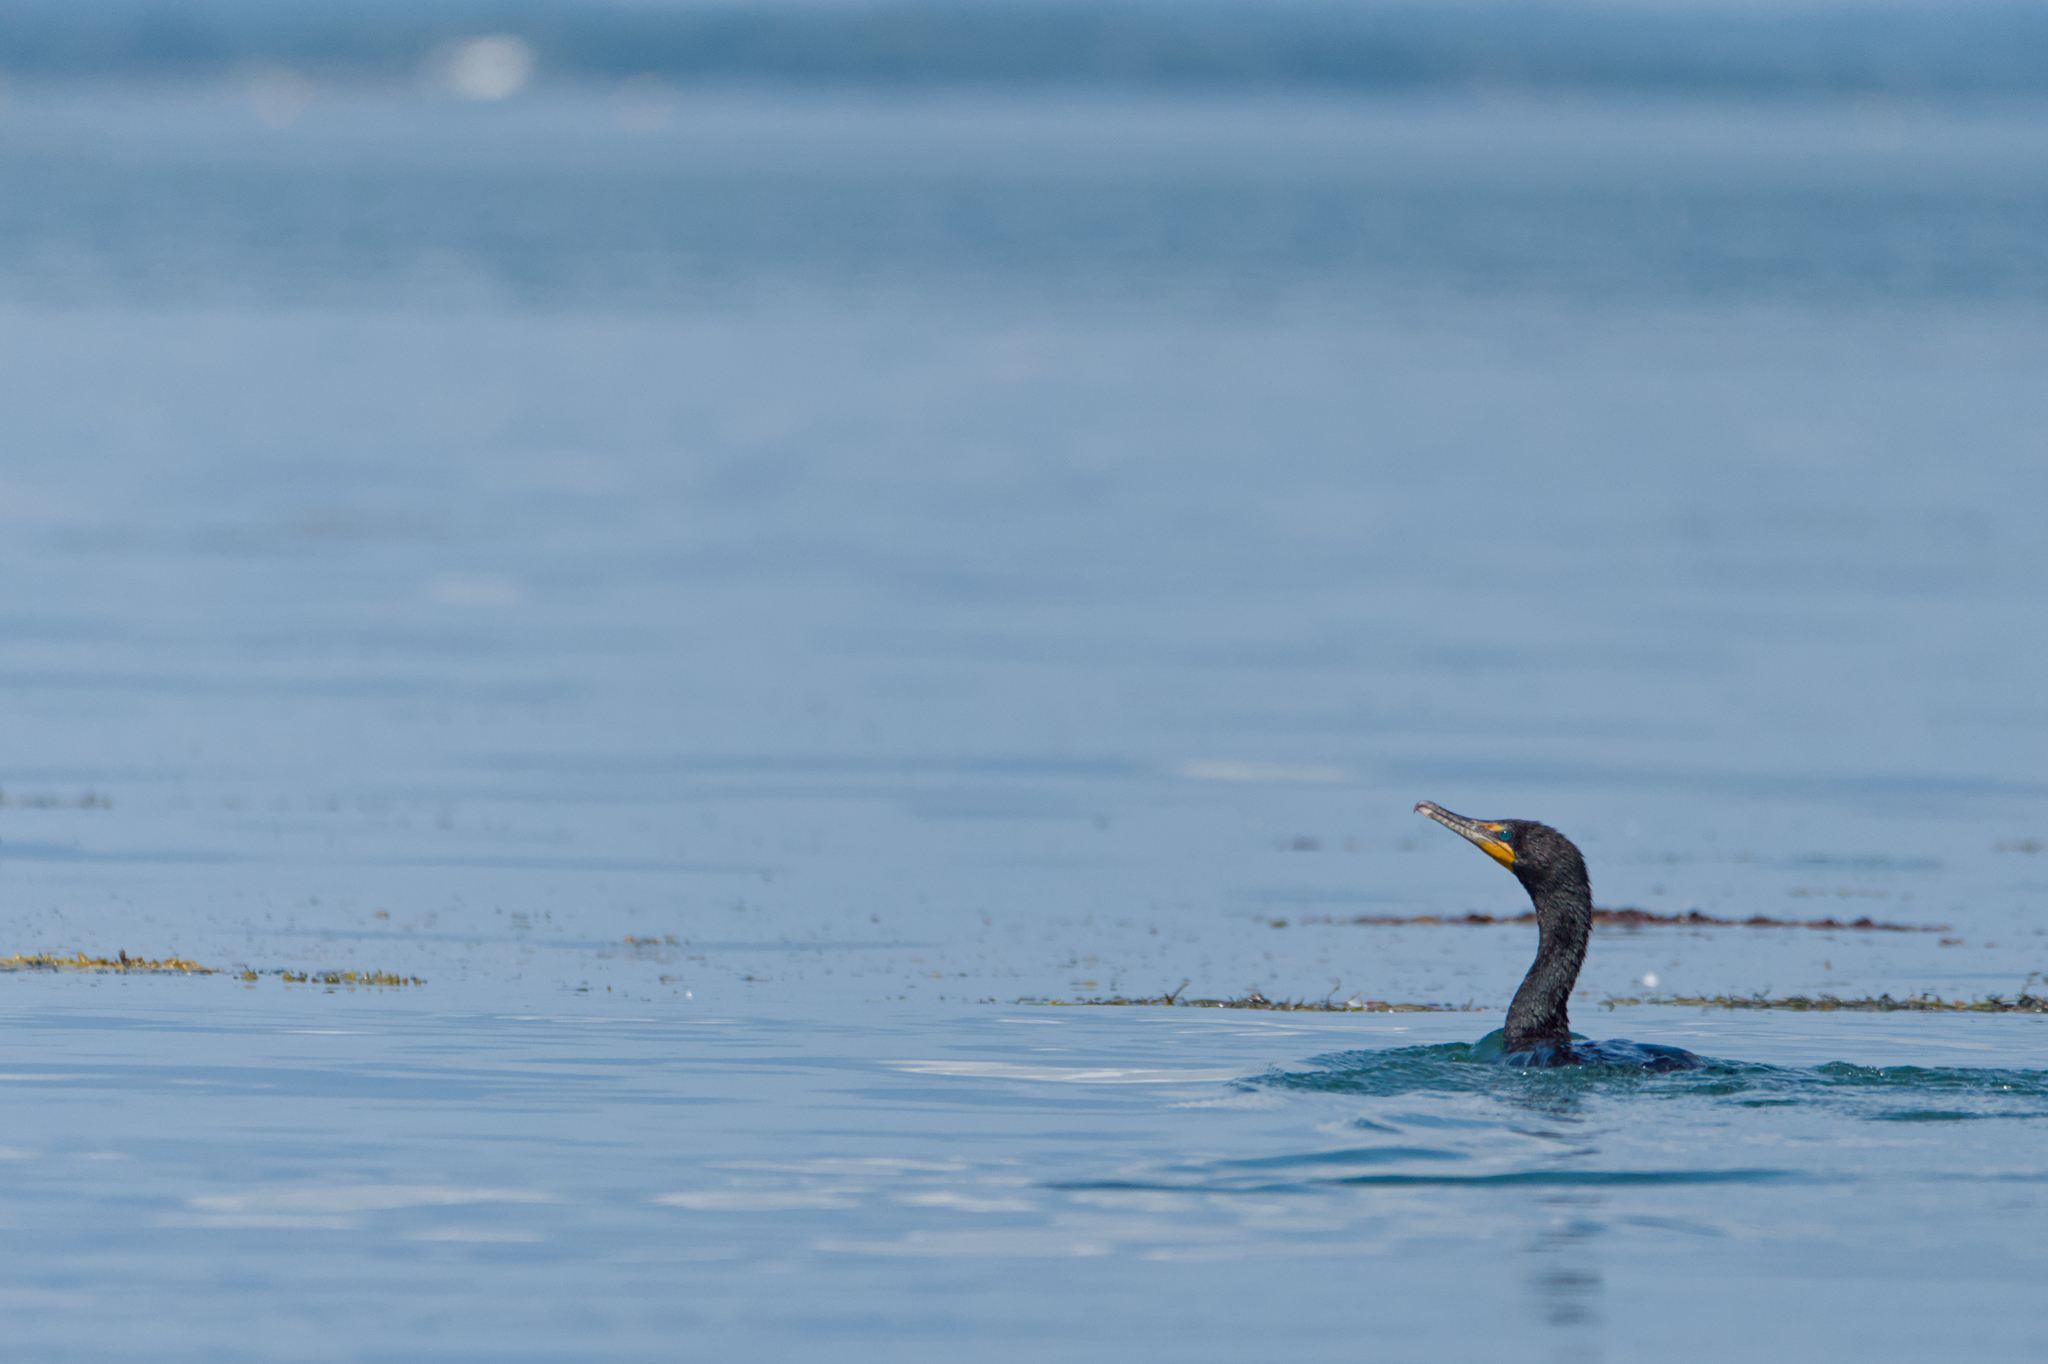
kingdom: Animalia
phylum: Chordata
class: Aves
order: Suliformes
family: Phalacrocoracidae
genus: Phalacrocorax
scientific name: Phalacrocorax auritus
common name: Double-crested cormorant
